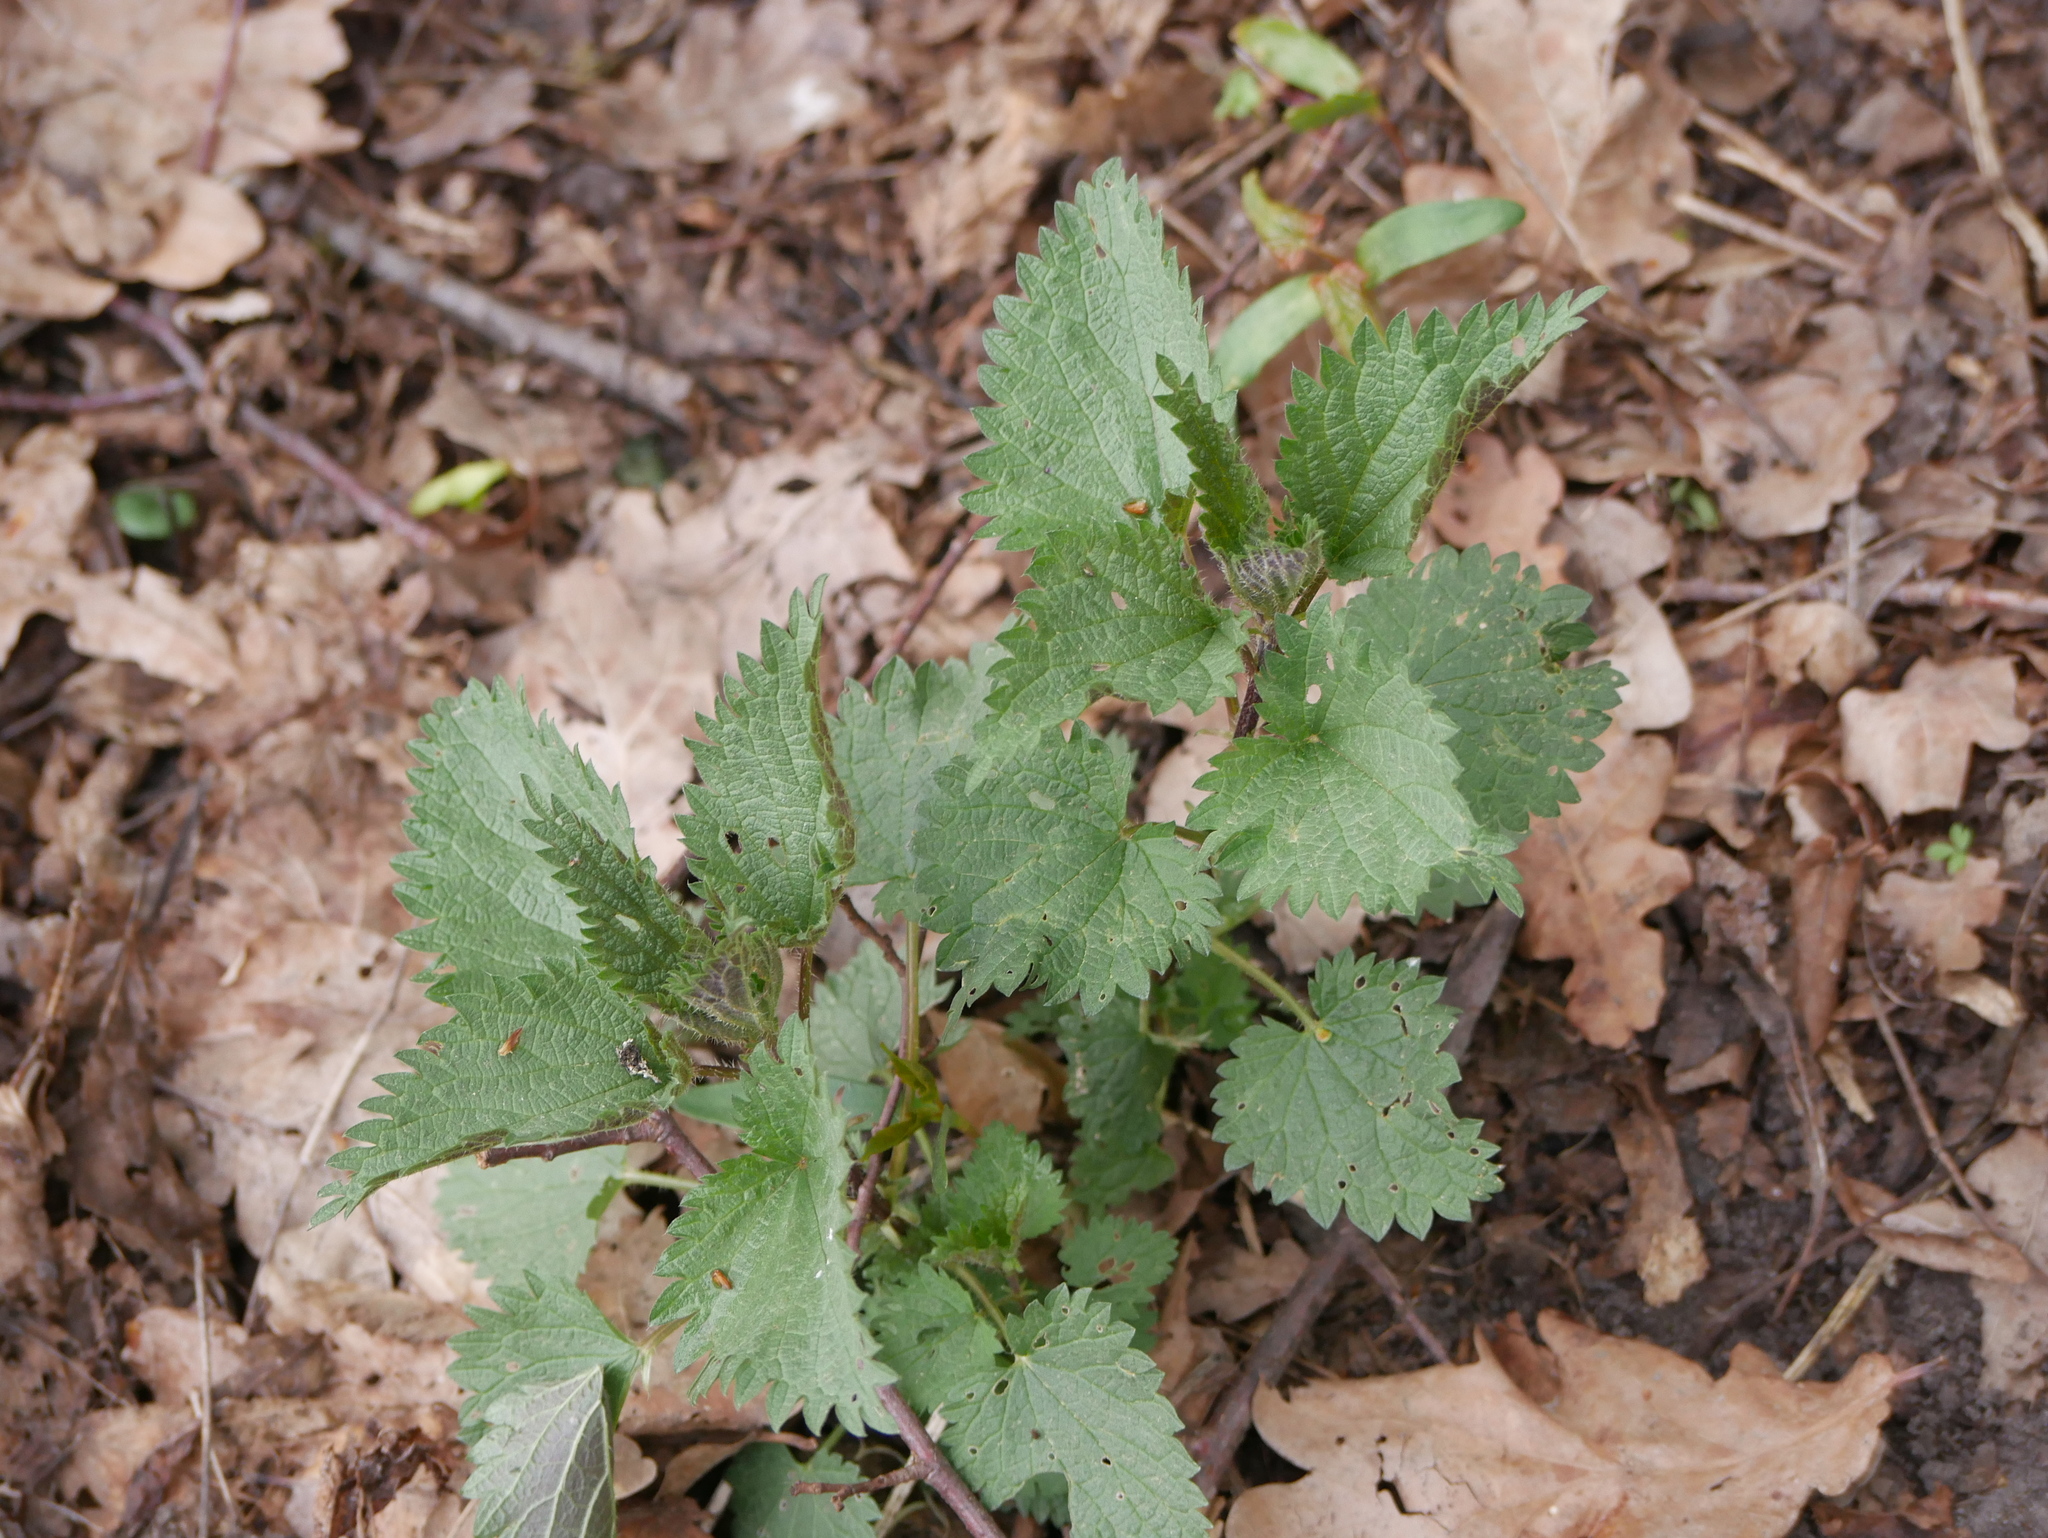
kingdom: Plantae
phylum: Tracheophyta
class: Magnoliopsida
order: Rosales
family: Urticaceae
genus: Urtica
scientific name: Urtica dioica
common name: Common nettle
